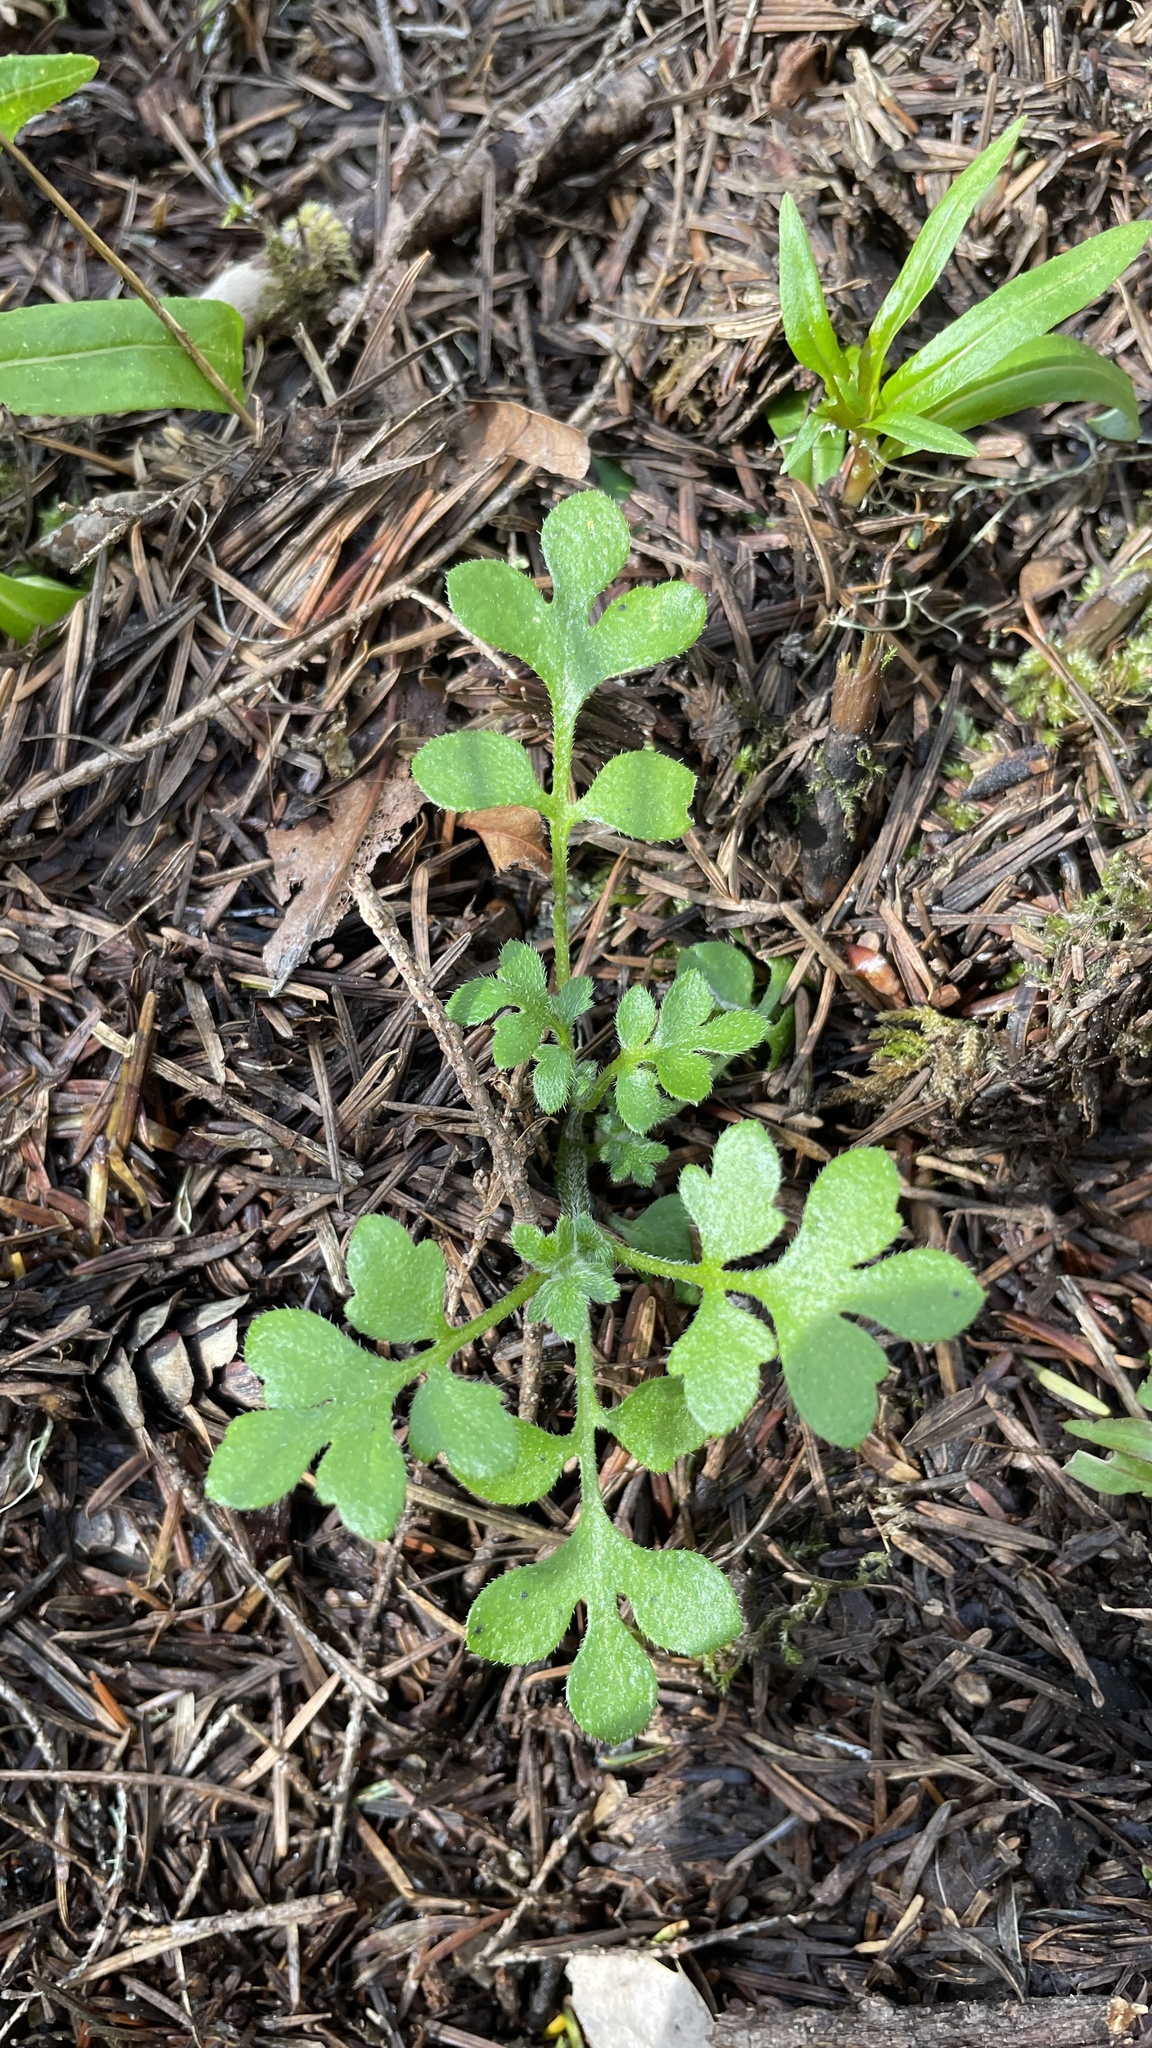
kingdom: Plantae
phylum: Tracheophyta
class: Magnoliopsida
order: Boraginales
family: Hydrophyllaceae
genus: Nemophila
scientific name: Nemophila parviflora
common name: Small-flowered baby-blue-eyes
